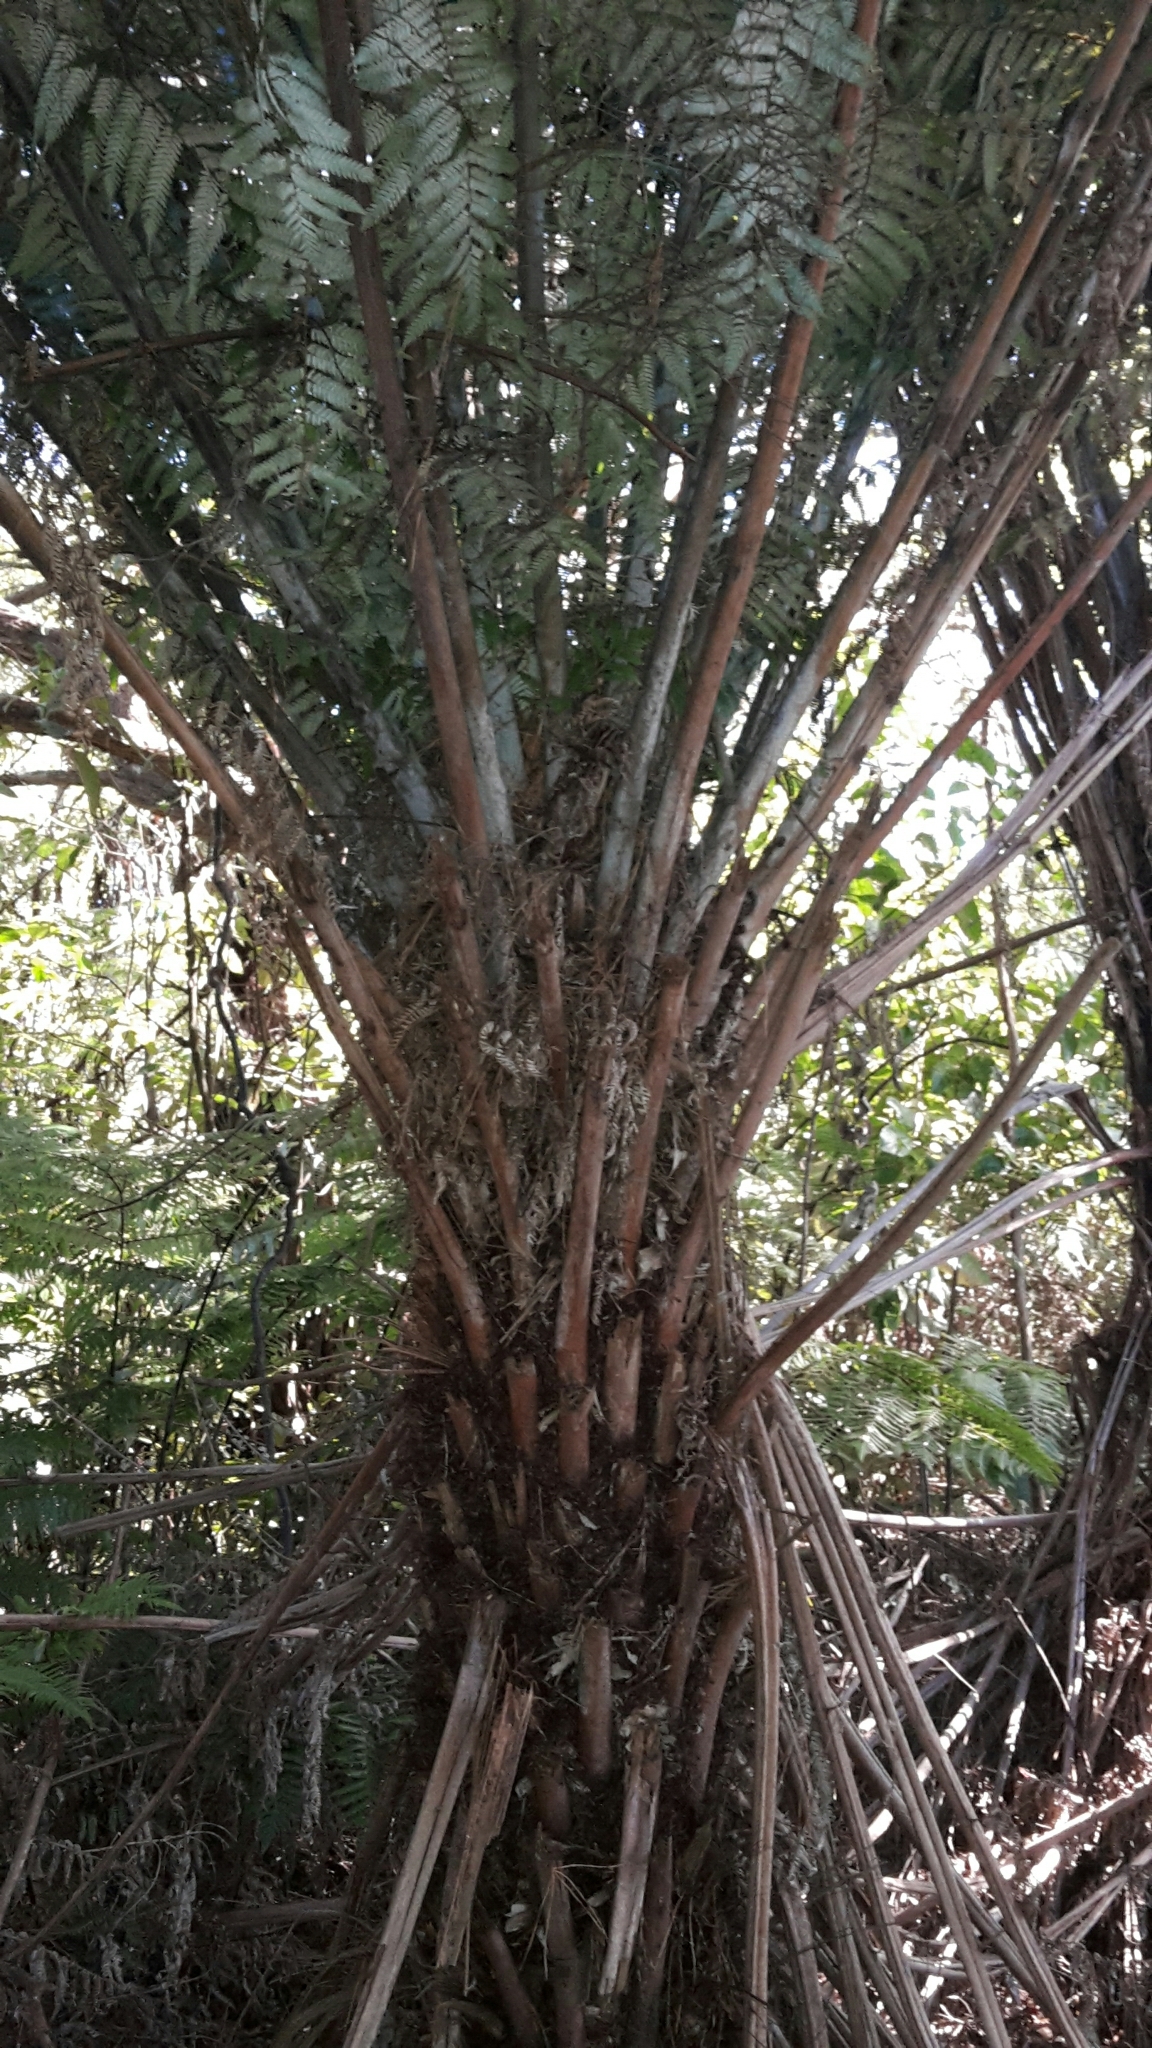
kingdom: Plantae
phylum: Tracheophyta
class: Polypodiopsida
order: Cyatheales
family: Cyatheaceae
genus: Alsophila
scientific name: Alsophila dealbata
